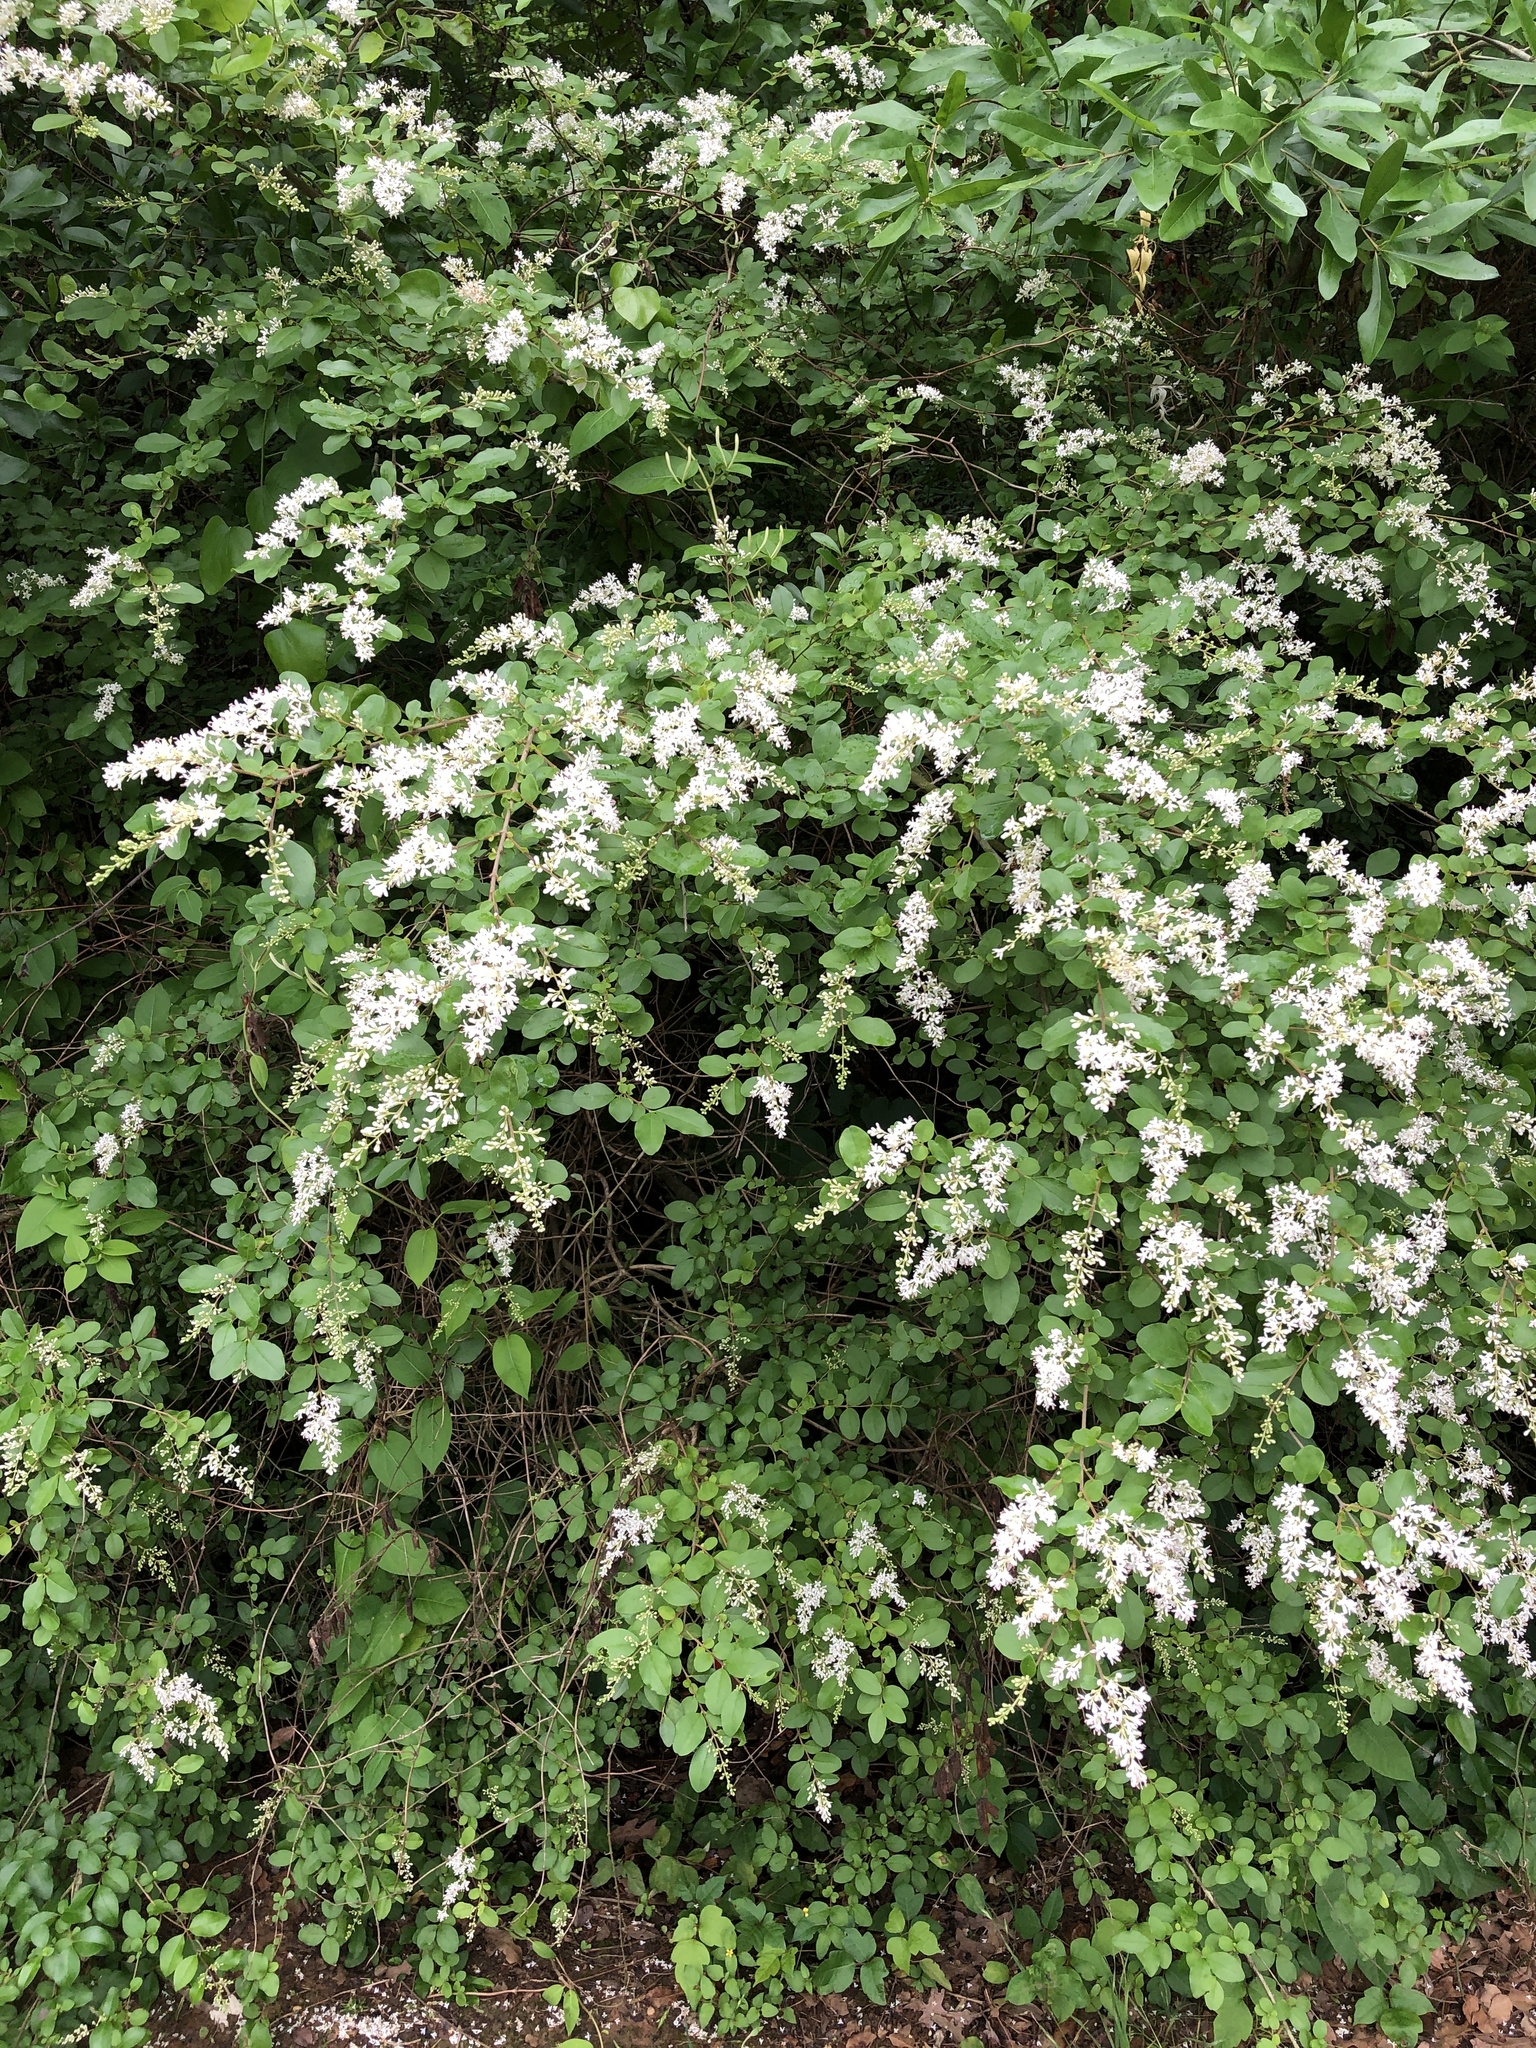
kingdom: Plantae
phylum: Tracheophyta
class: Magnoliopsida
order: Lamiales
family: Oleaceae
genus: Ligustrum
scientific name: Ligustrum sinense
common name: Chinese privet
